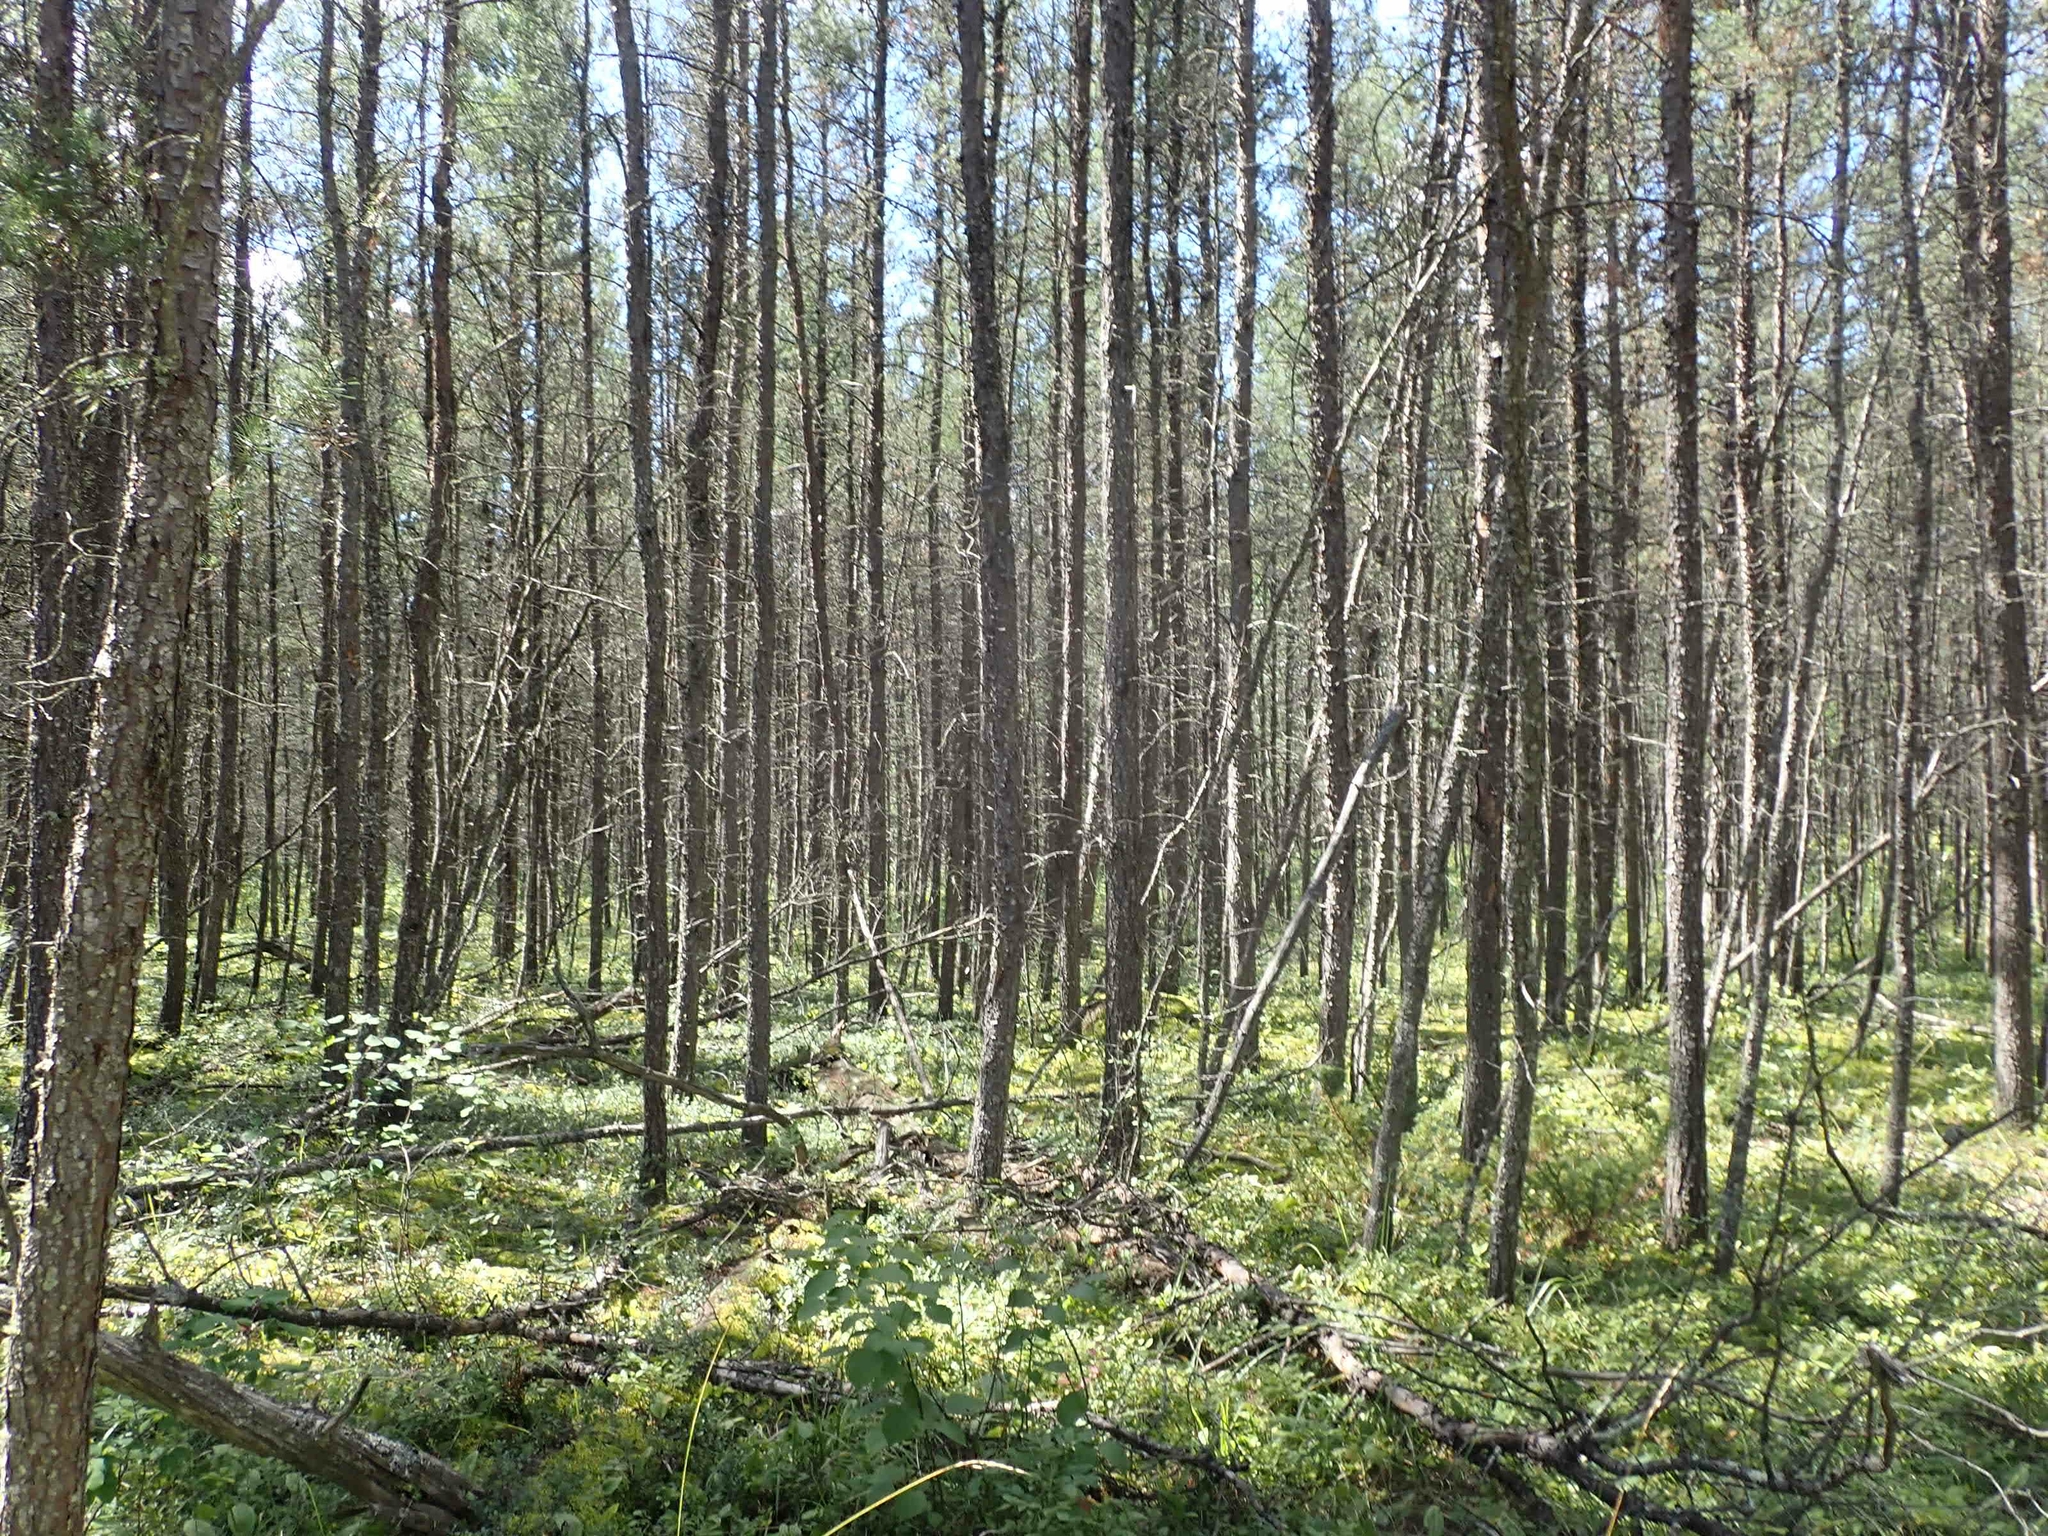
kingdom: Plantae
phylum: Tracheophyta
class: Pinopsida
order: Pinales
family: Pinaceae
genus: Pinus
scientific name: Pinus banksiana
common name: Jack pine
